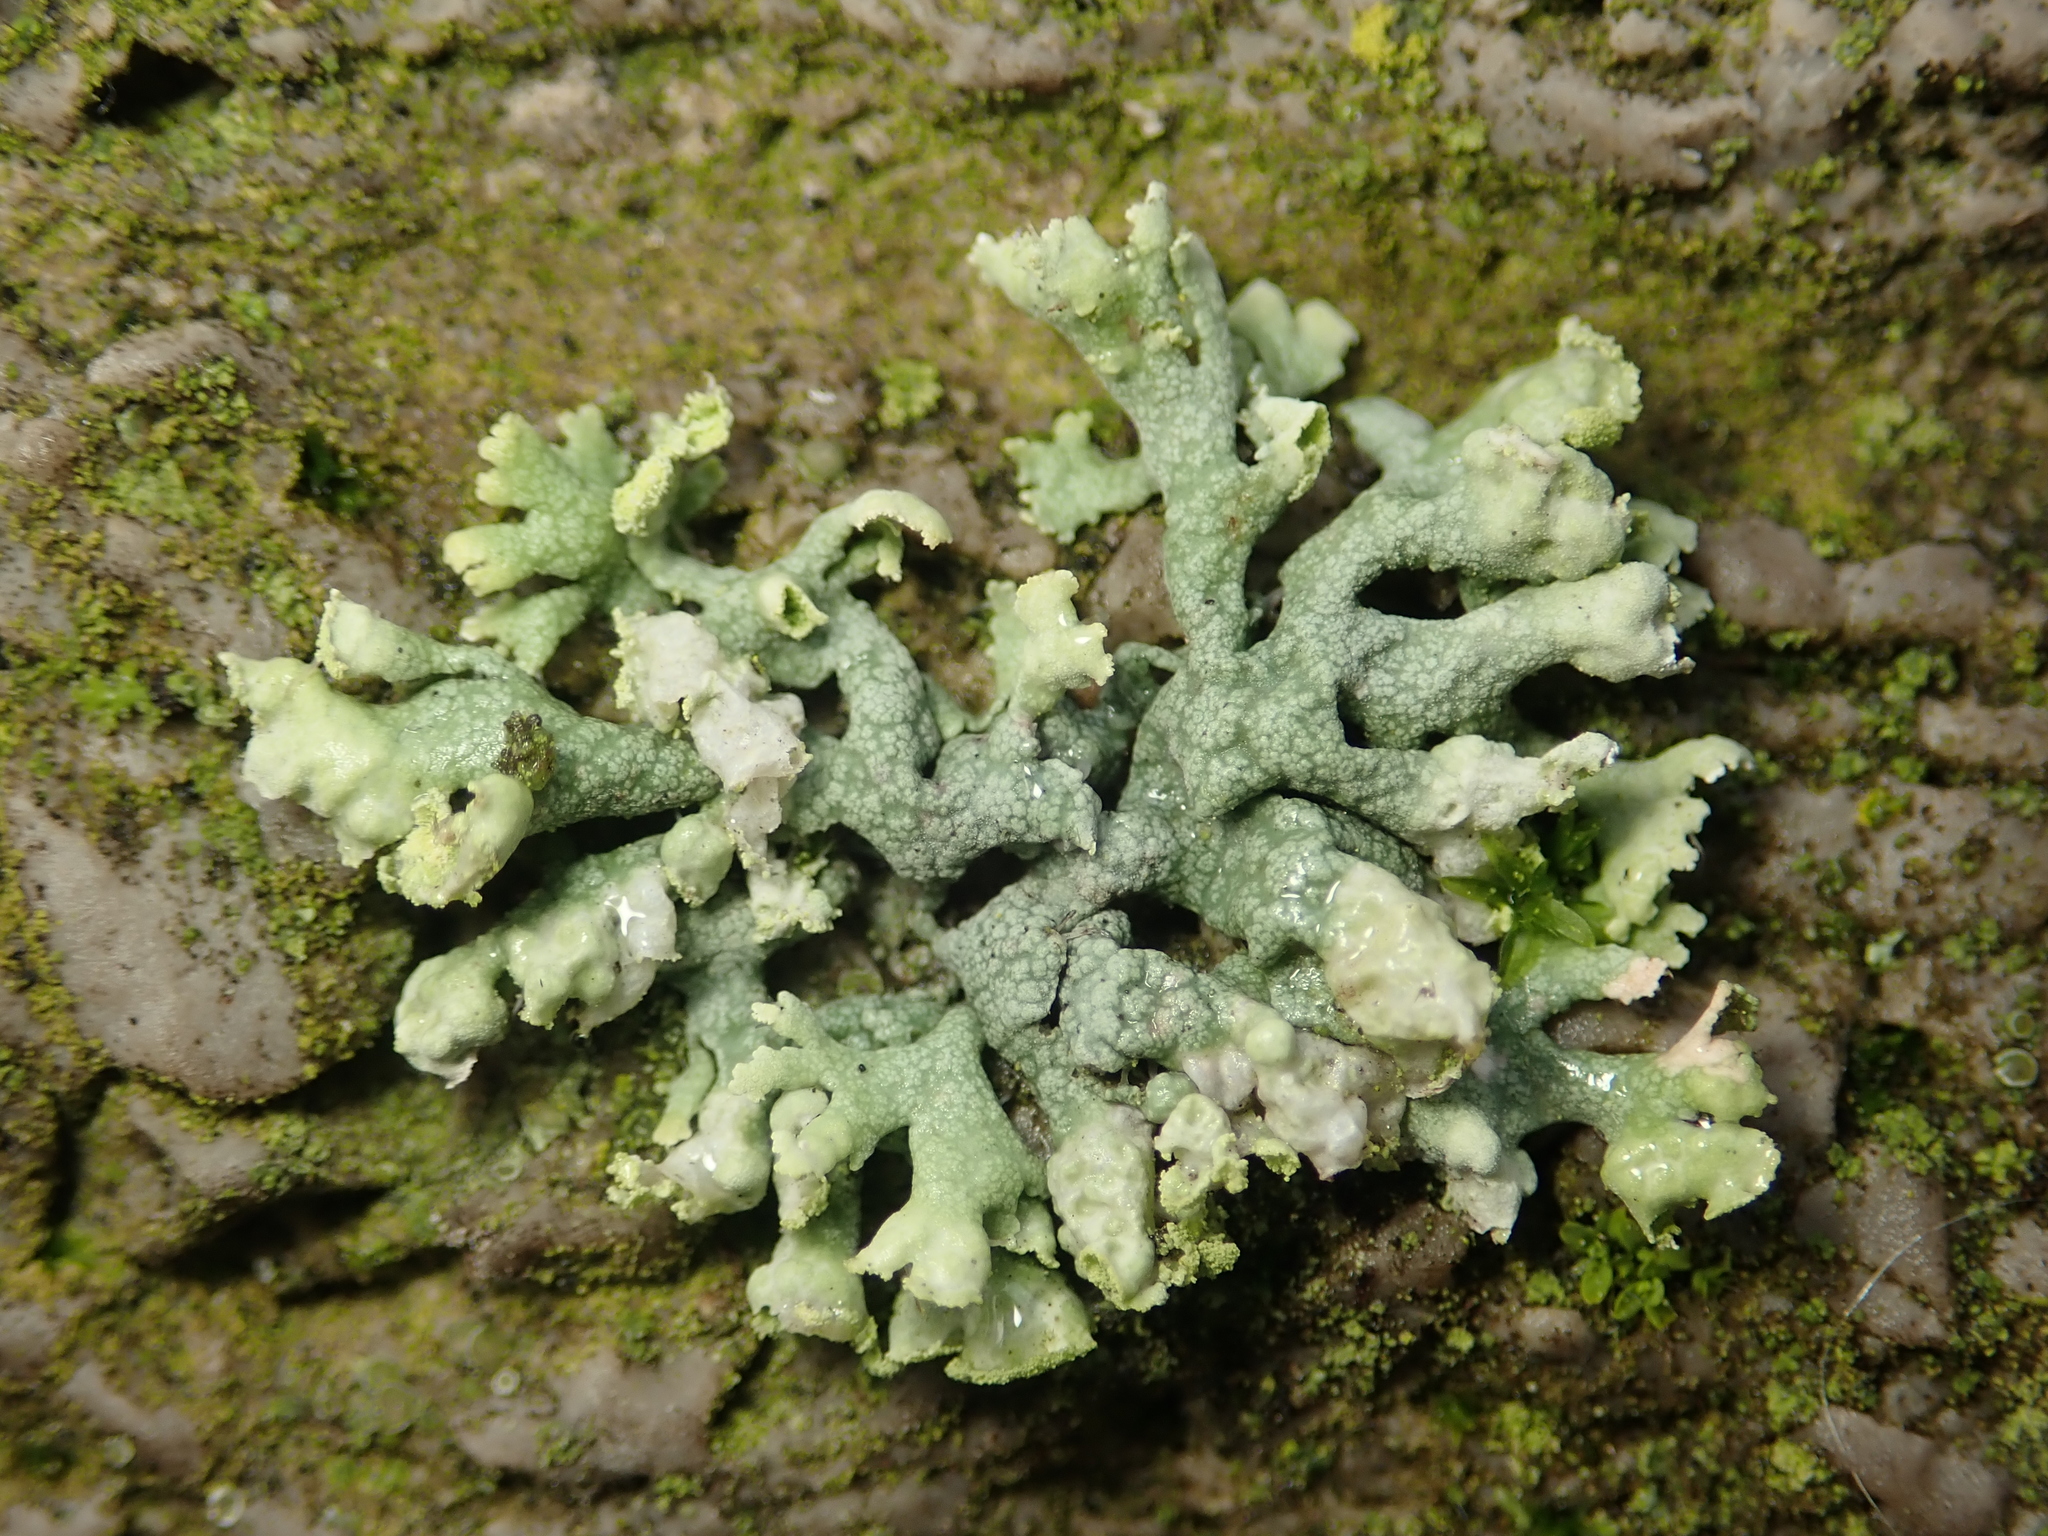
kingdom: Fungi
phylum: Ascomycota
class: Lecanoromycetes
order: Caliciales
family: Physciaceae
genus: Physcia
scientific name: Physcia adscendens
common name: Hooded rosette lichen
